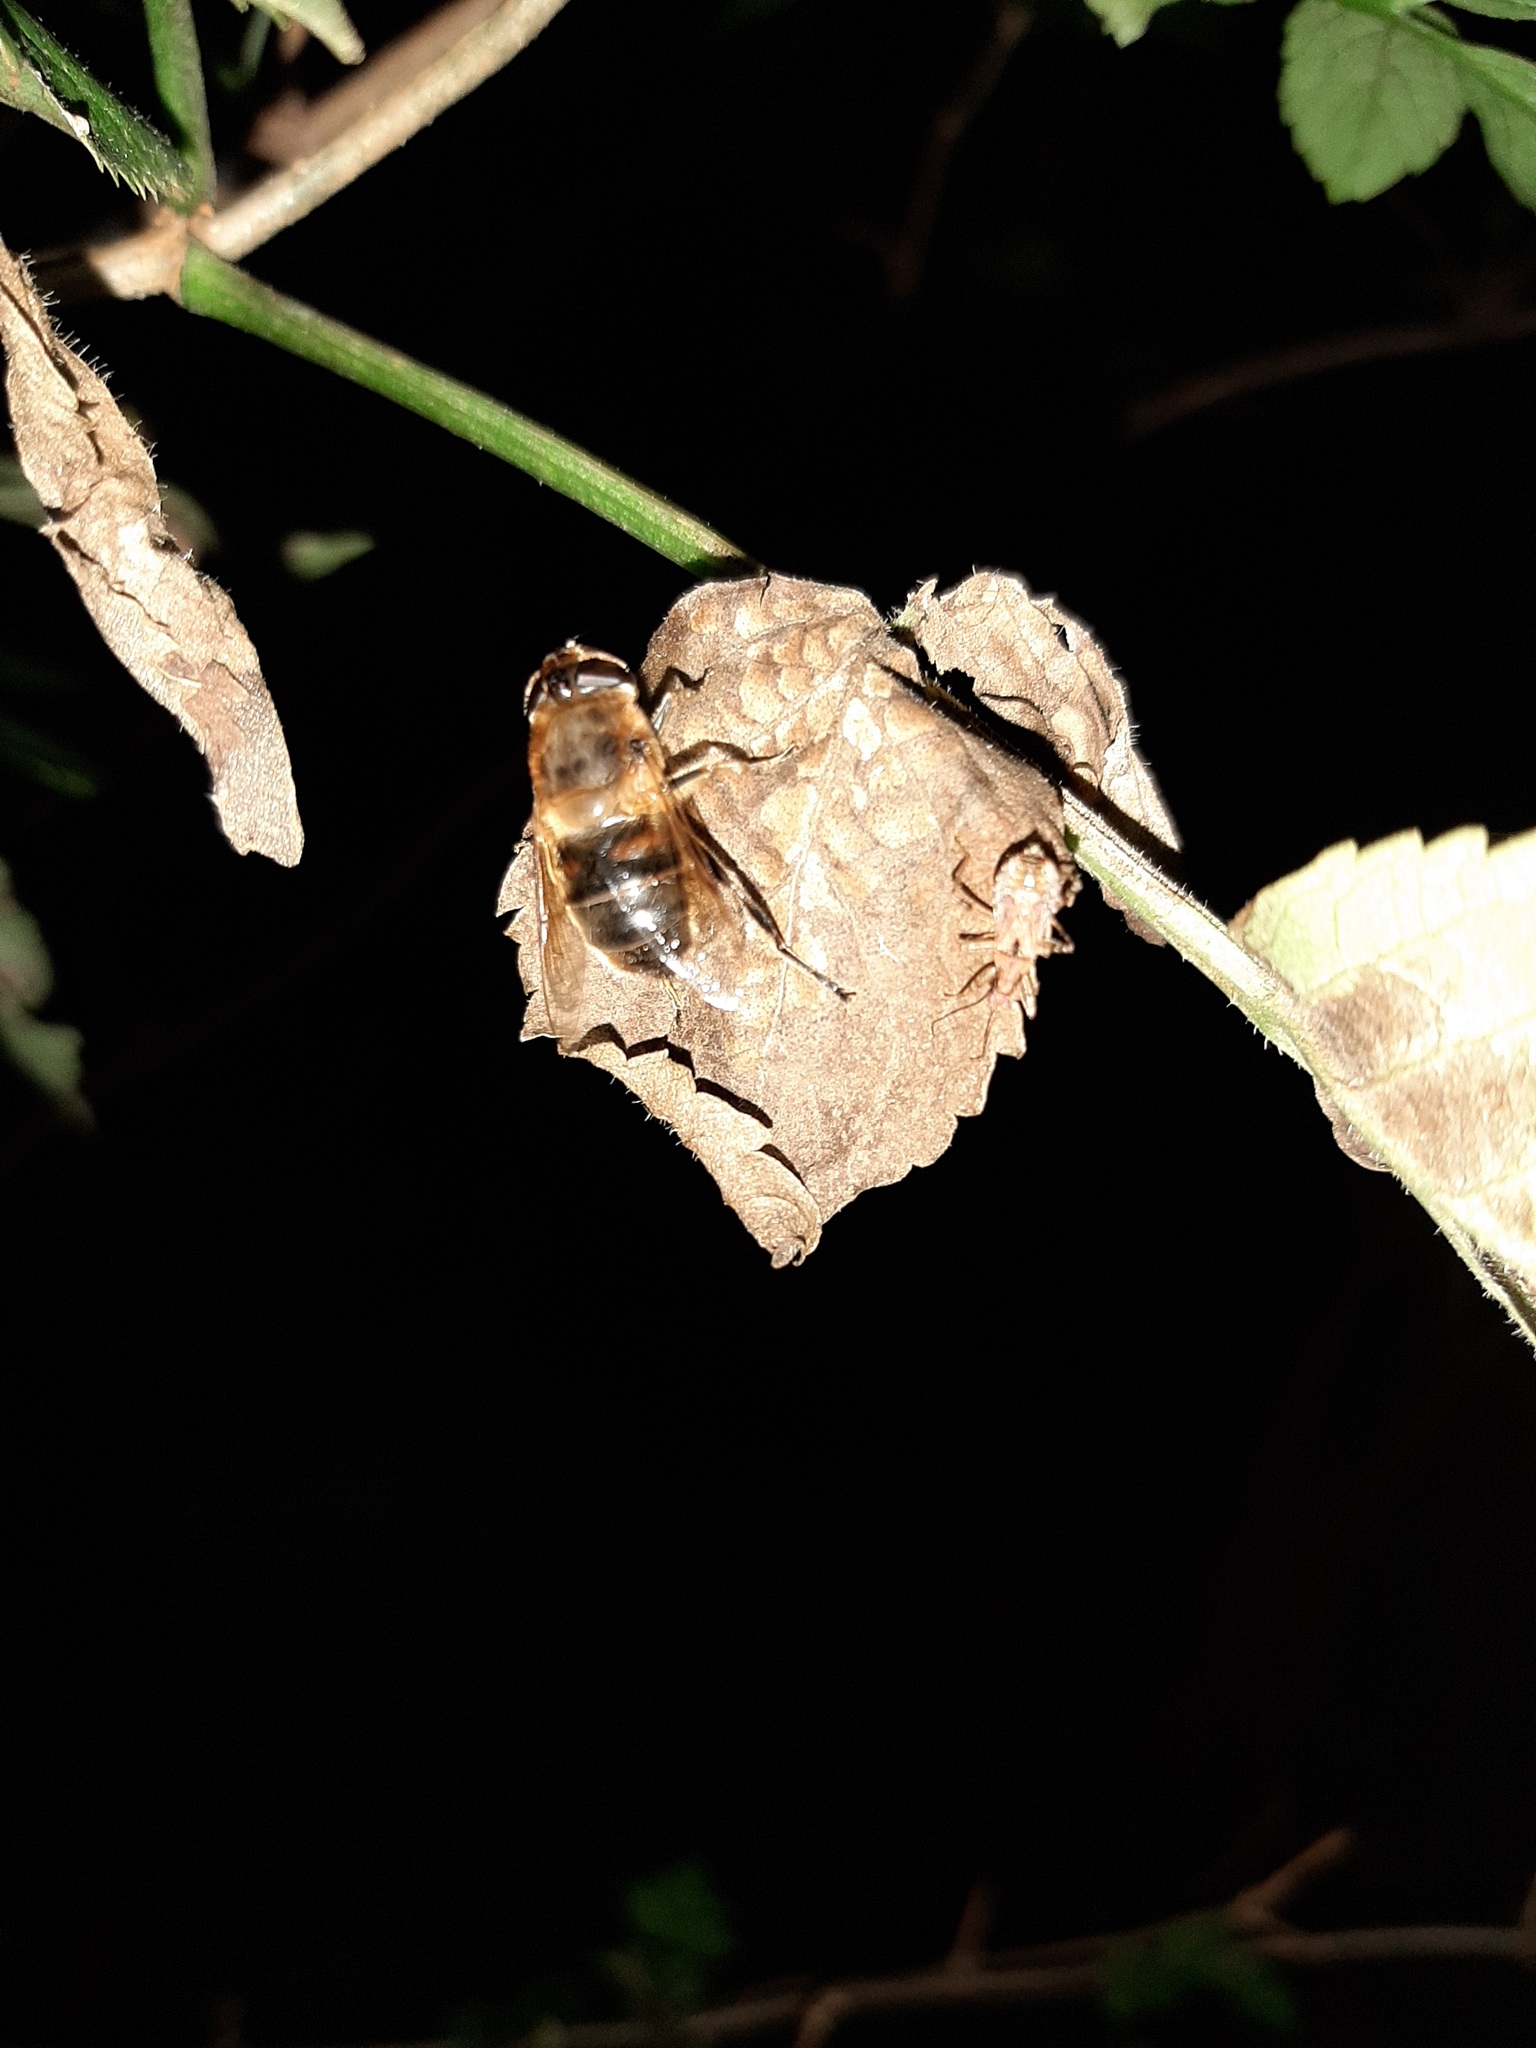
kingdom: Animalia
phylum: Arthropoda
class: Insecta
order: Diptera
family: Syrphidae
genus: Eristalis
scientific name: Eristalis tenax
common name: Drone fly
